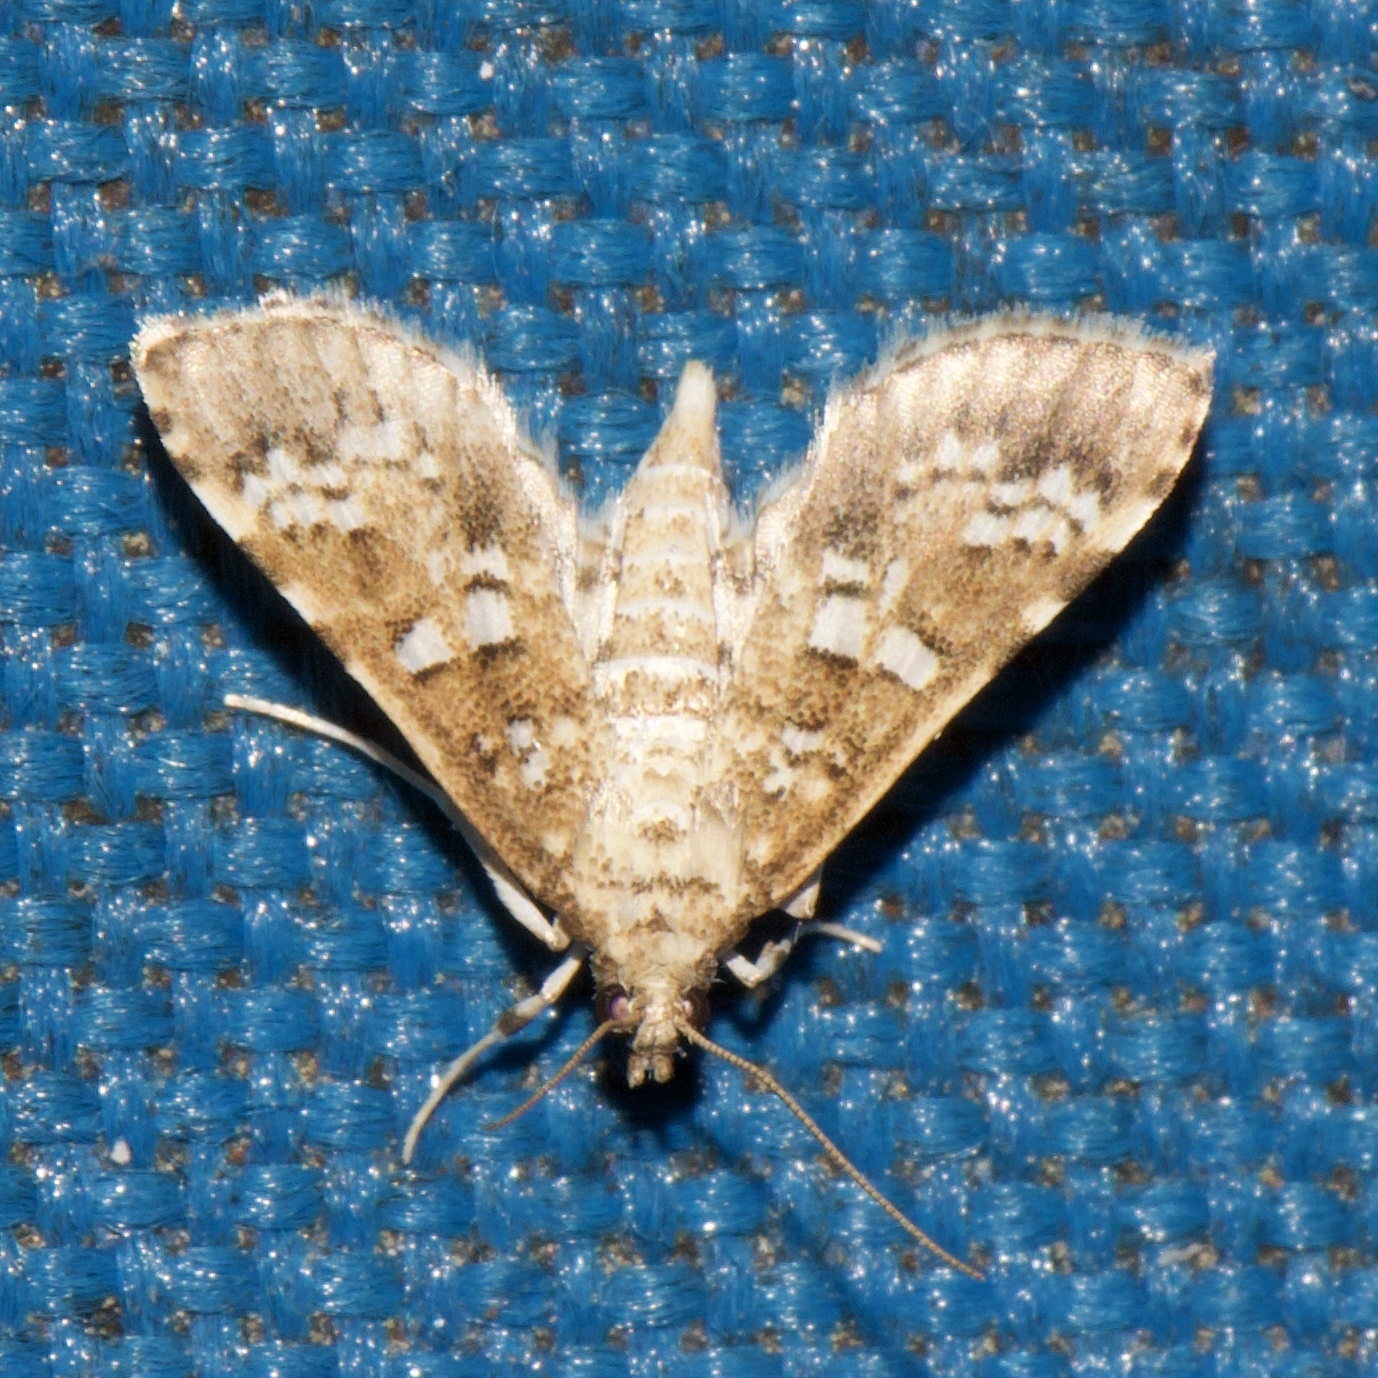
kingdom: Animalia
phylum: Arthropoda
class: Insecta
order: Lepidoptera
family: Crambidae
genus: Samea
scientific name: Samea multiplicalis
